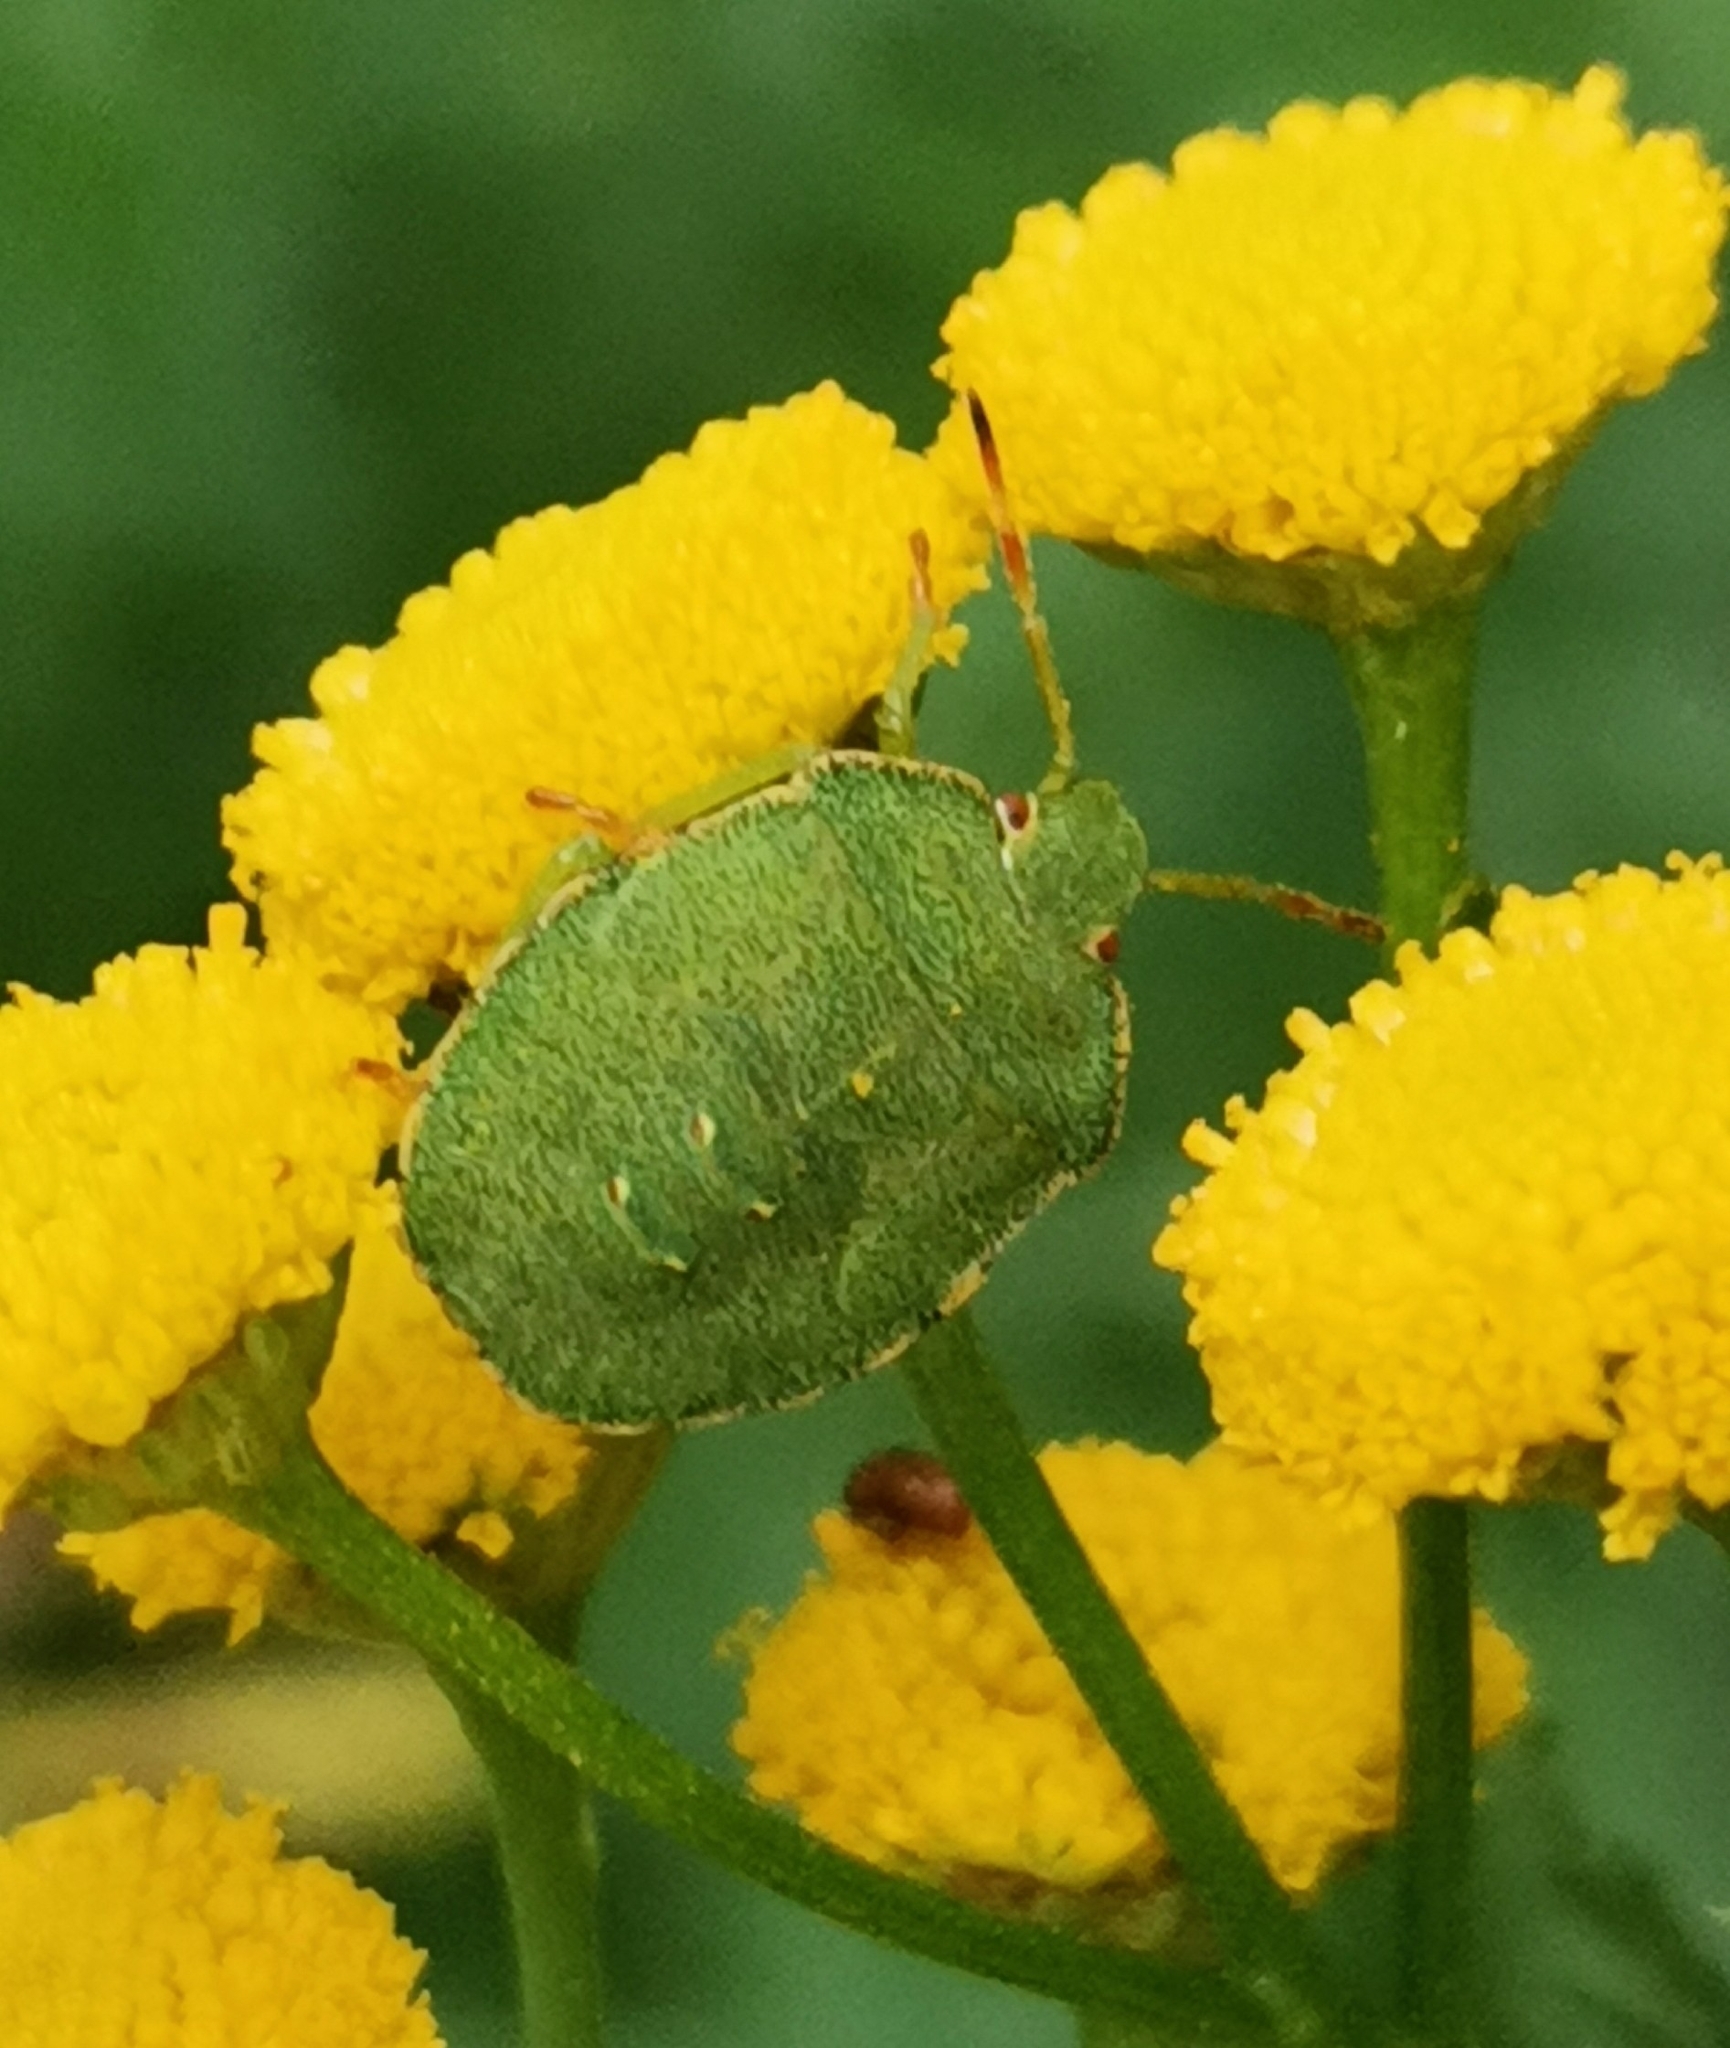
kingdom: Animalia
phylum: Arthropoda
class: Insecta
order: Hemiptera
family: Pentatomidae
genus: Palomena
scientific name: Palomena prasina
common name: Green shieldbug
